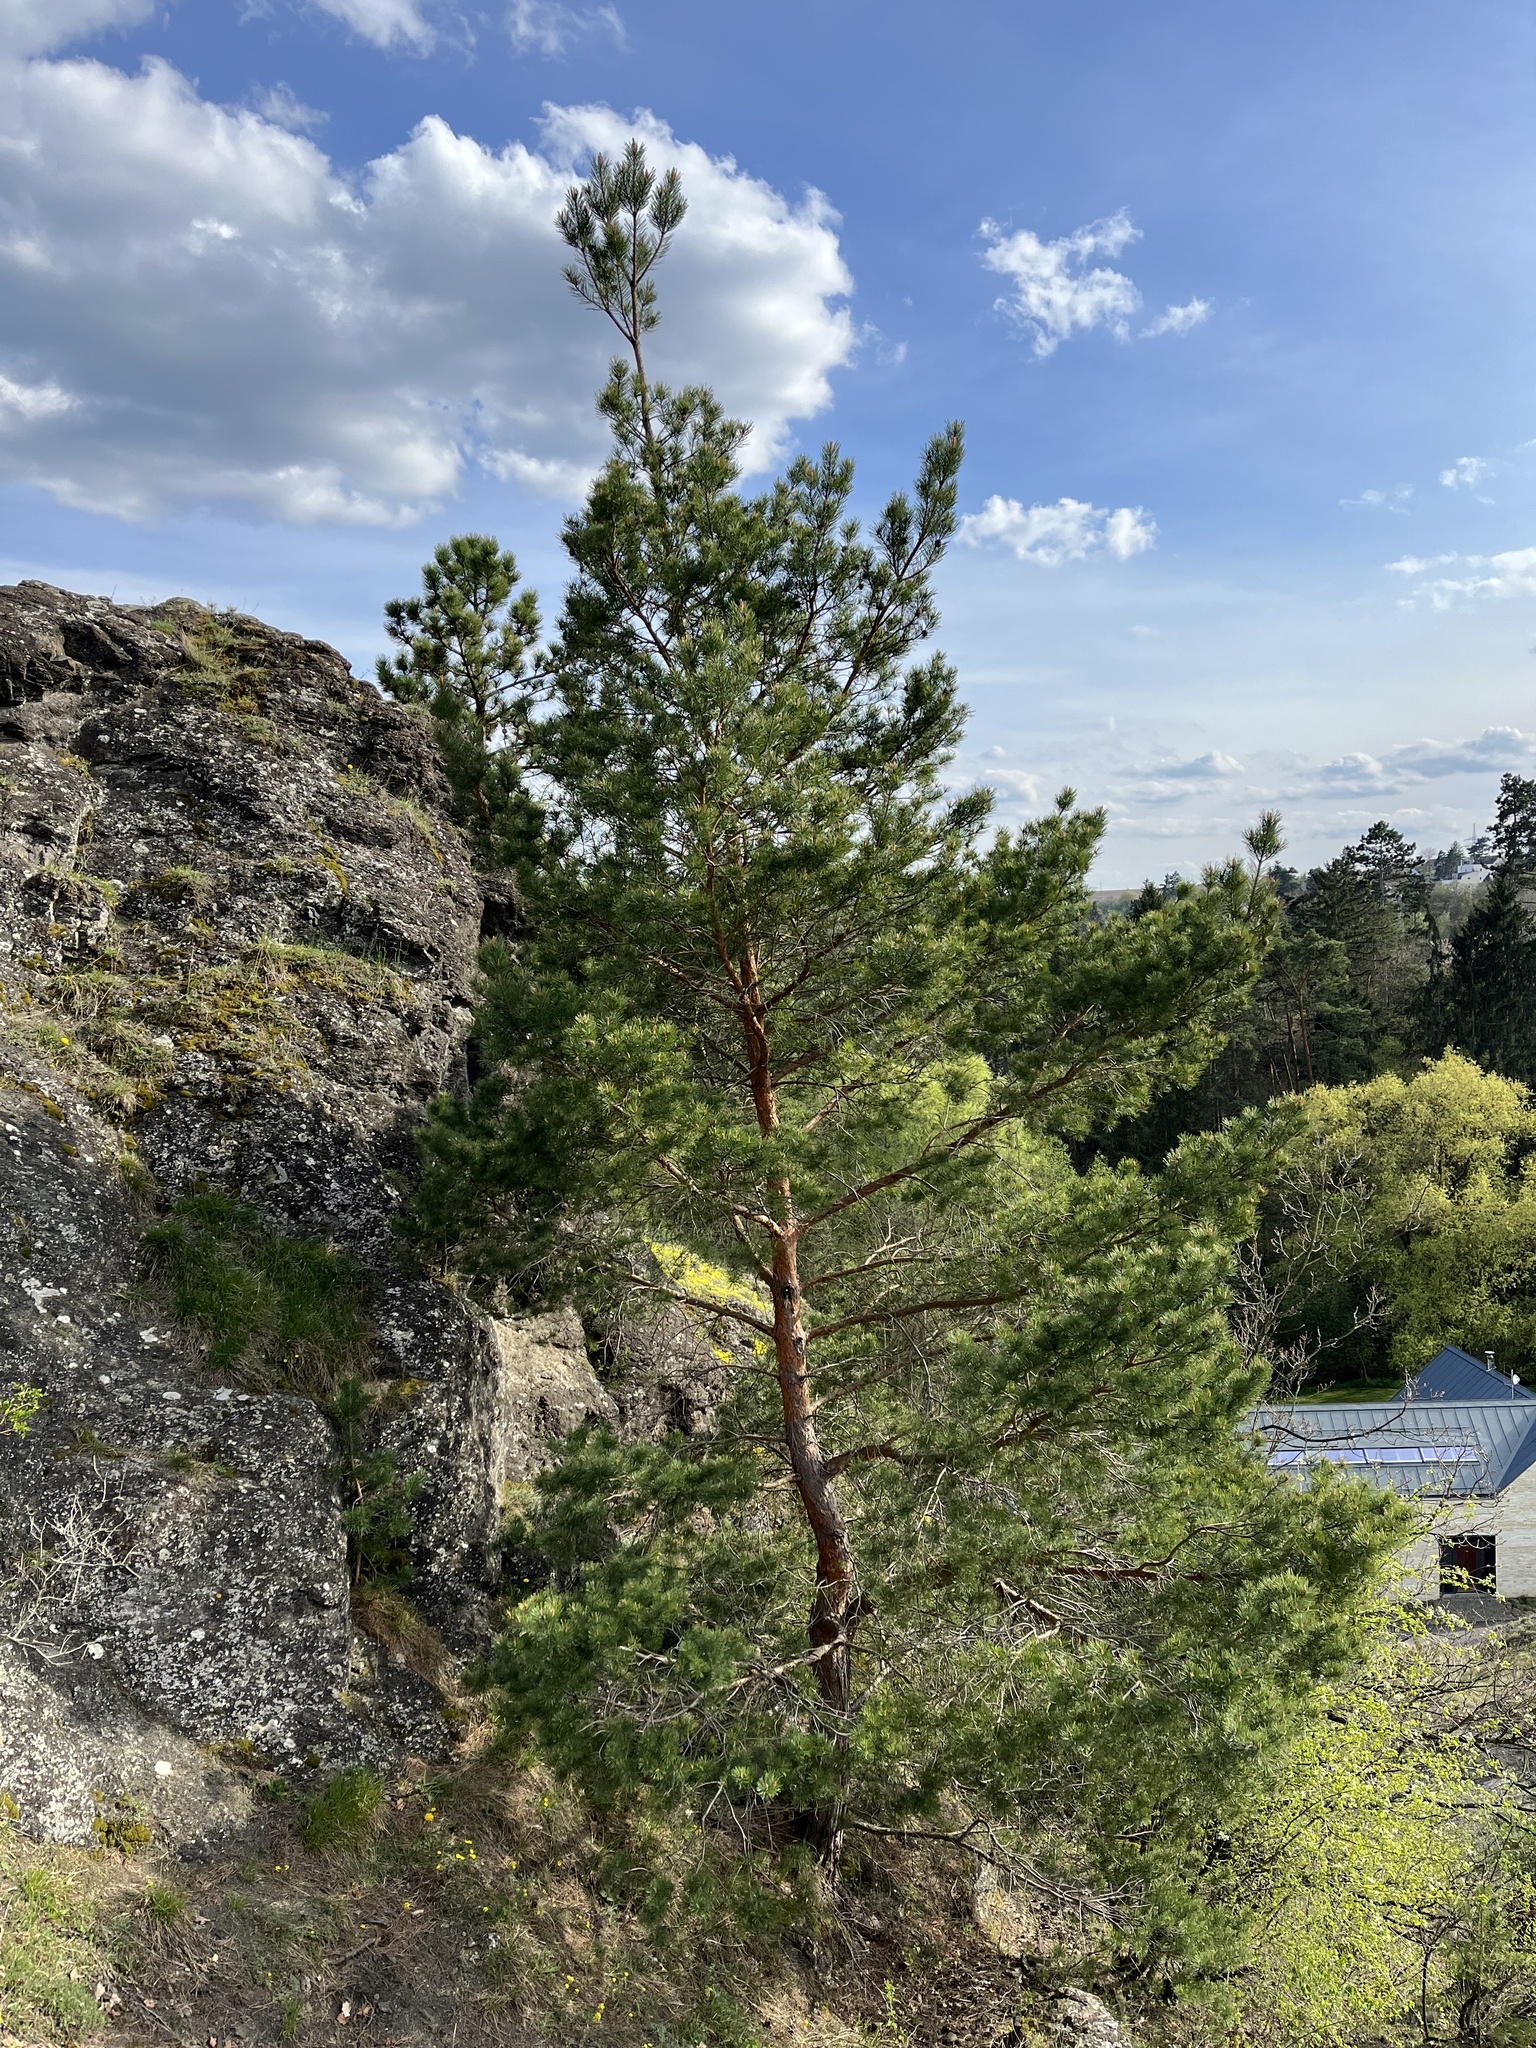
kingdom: Plantae
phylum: Tracheophyta
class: Pinopsida
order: Pinales
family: Pinaceae
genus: Pinus
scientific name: Pinus sylvestris
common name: Scots pine
